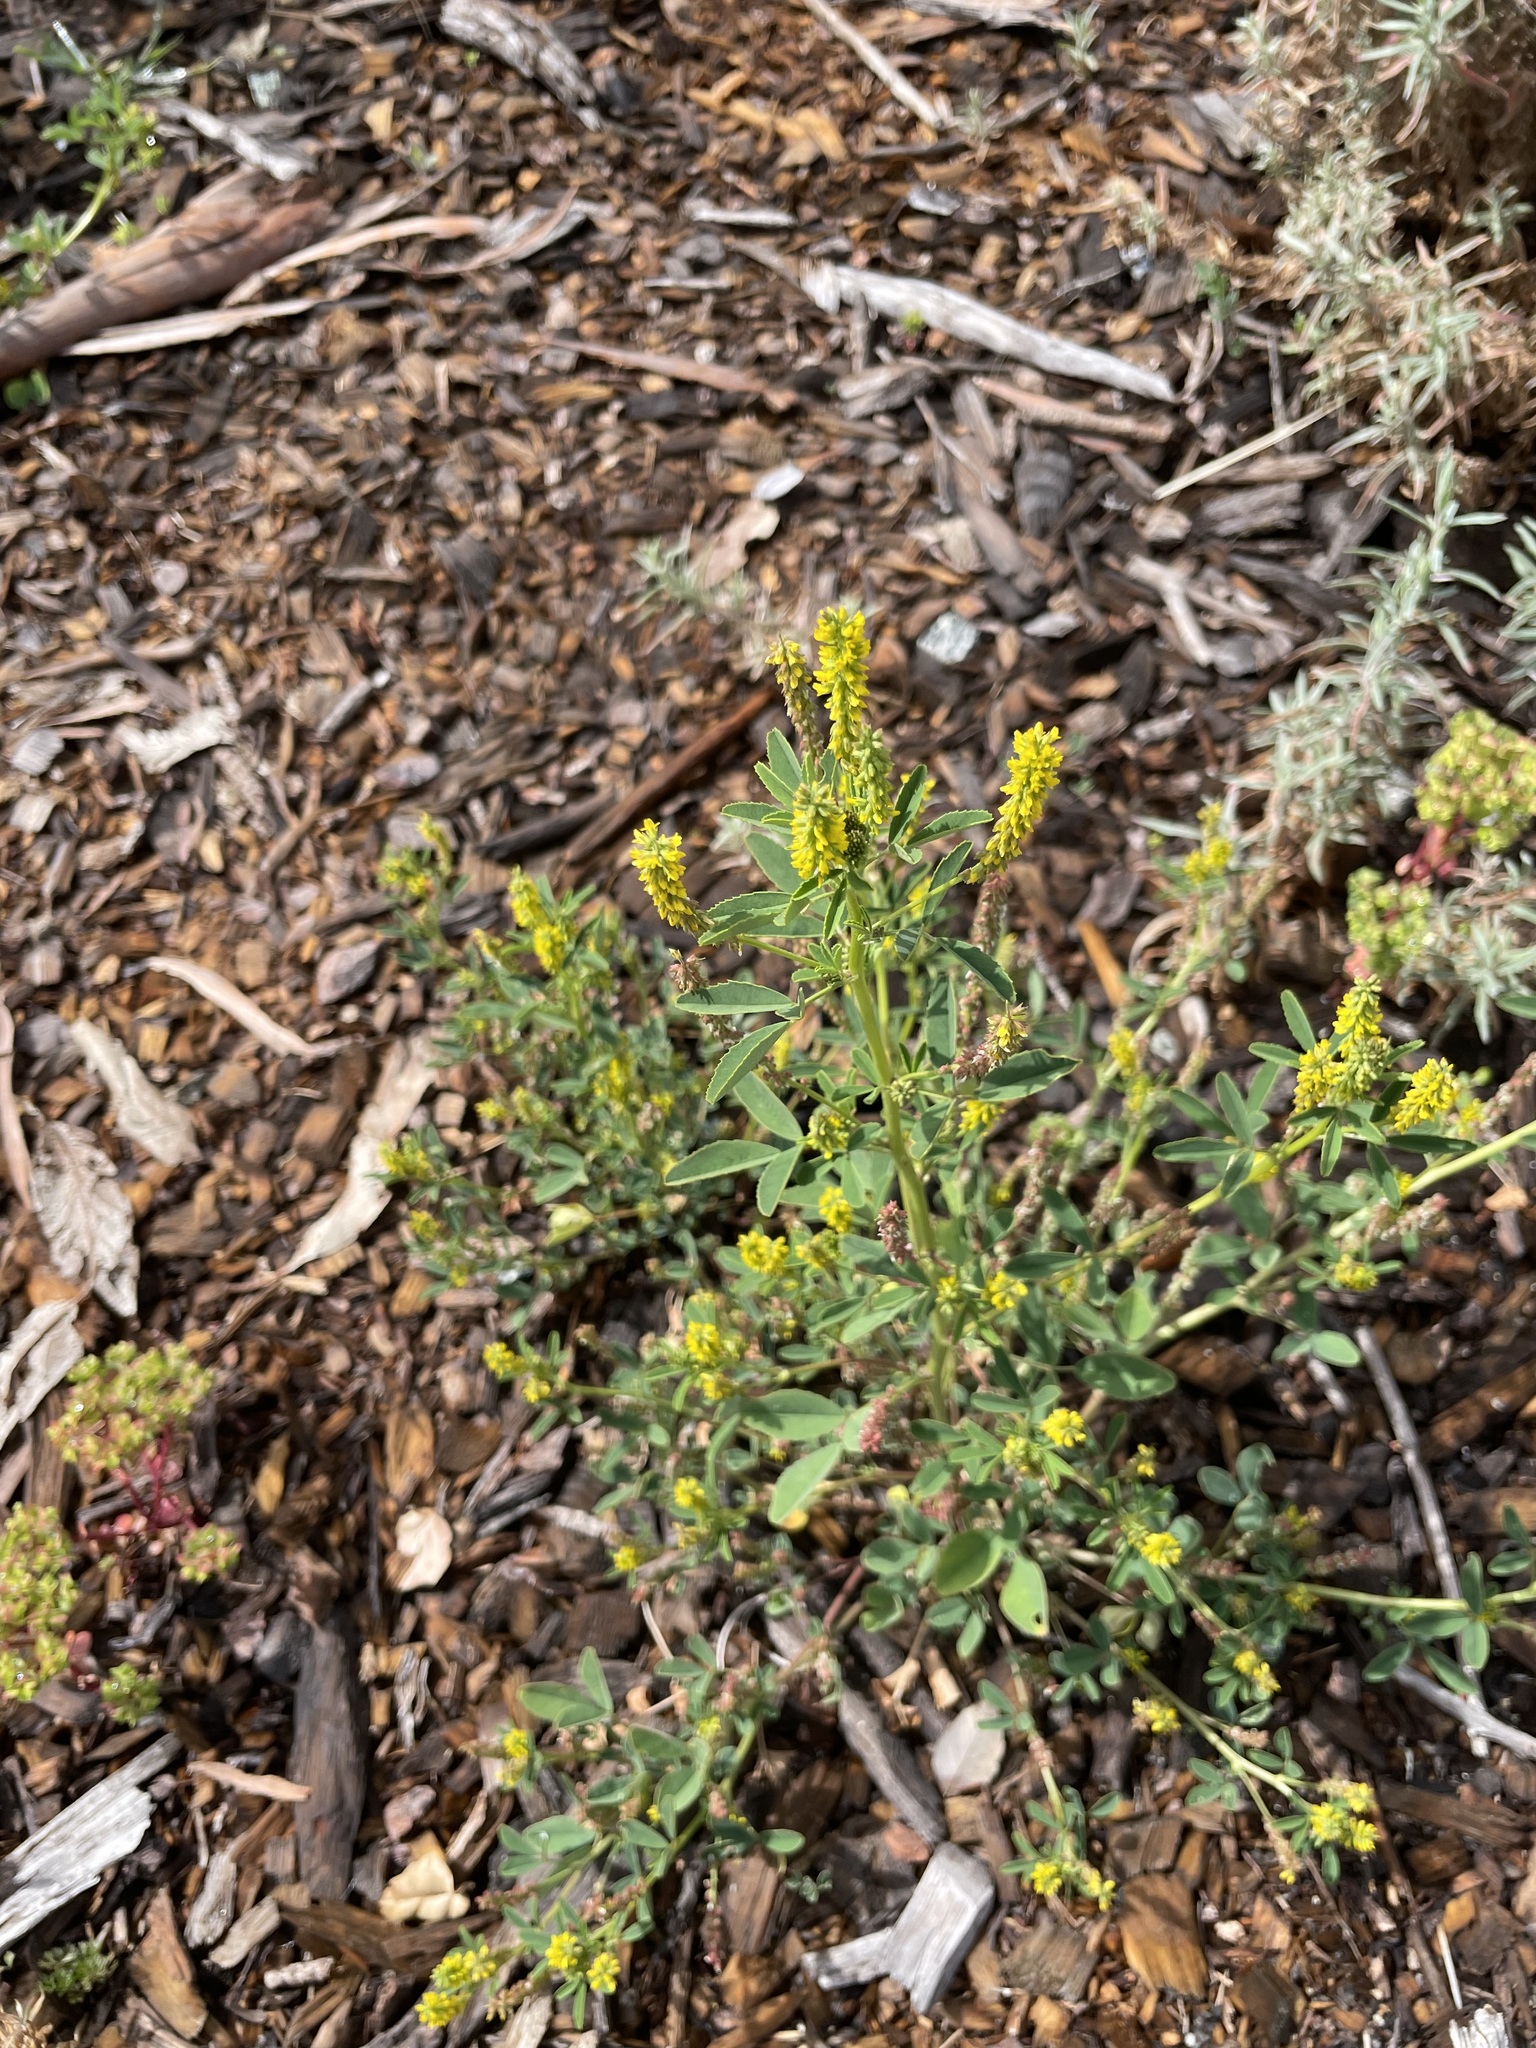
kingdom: Plantae
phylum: Tracheophyta
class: Magnoliopsida
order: Fabales
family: Fabaceae
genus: Melilotus
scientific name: Melilotus indicus
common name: Small melilot
